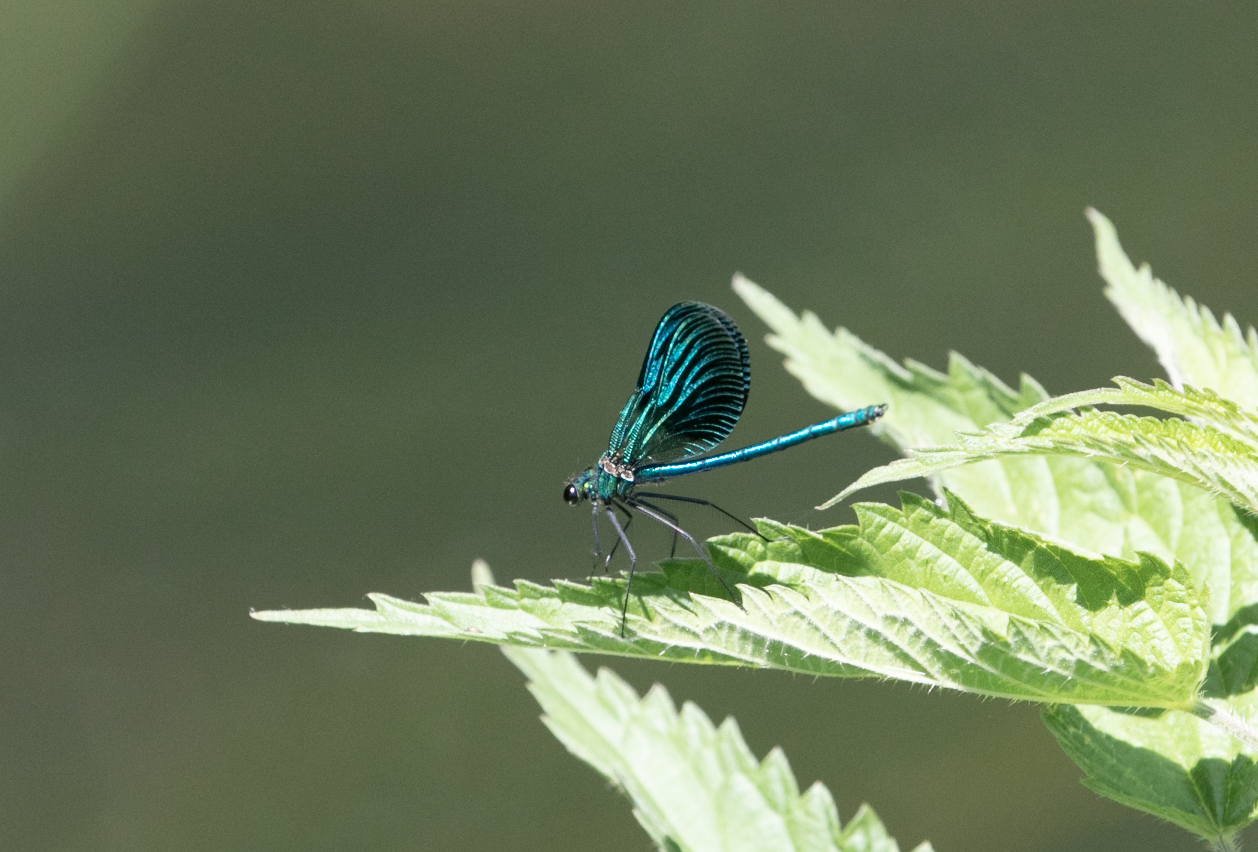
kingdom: Animalia
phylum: Arthropoda
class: Insecta
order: Odonata
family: Calopterygidae
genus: Calopteryx
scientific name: Calopteryx splendens
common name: Banded demoiselle
